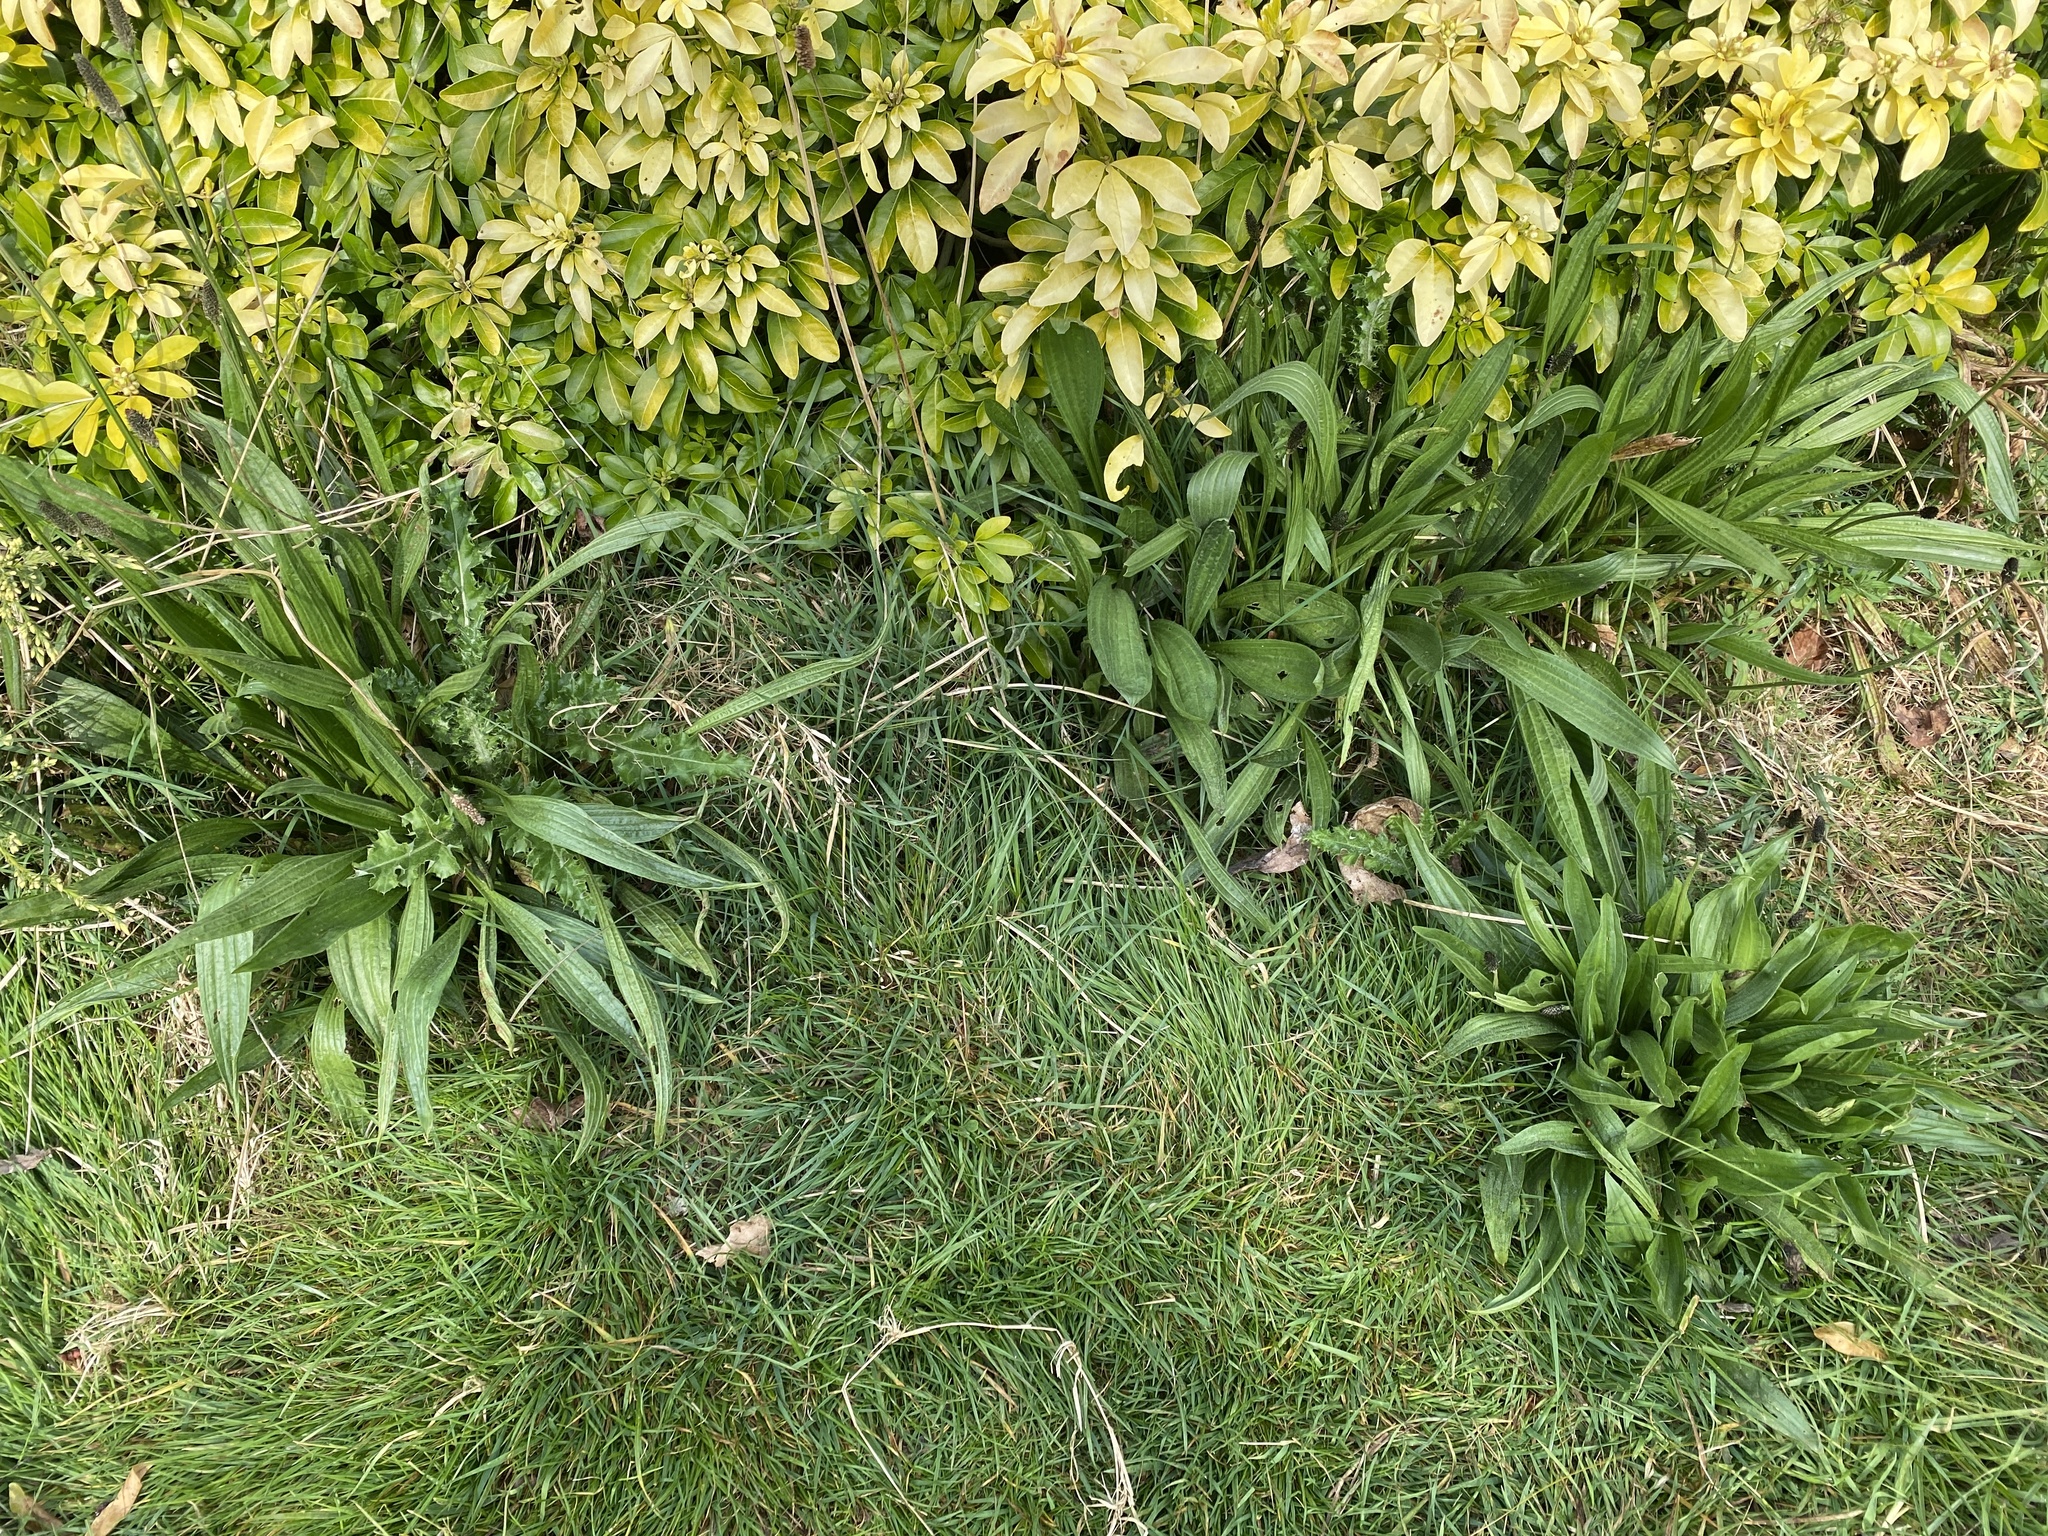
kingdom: Plantae
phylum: Tracheophyta
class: Magnoliopsida
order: Lamiales
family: Plantaginaceae
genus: Plantago
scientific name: Plantago lanceolata
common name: Ribwort plantain
